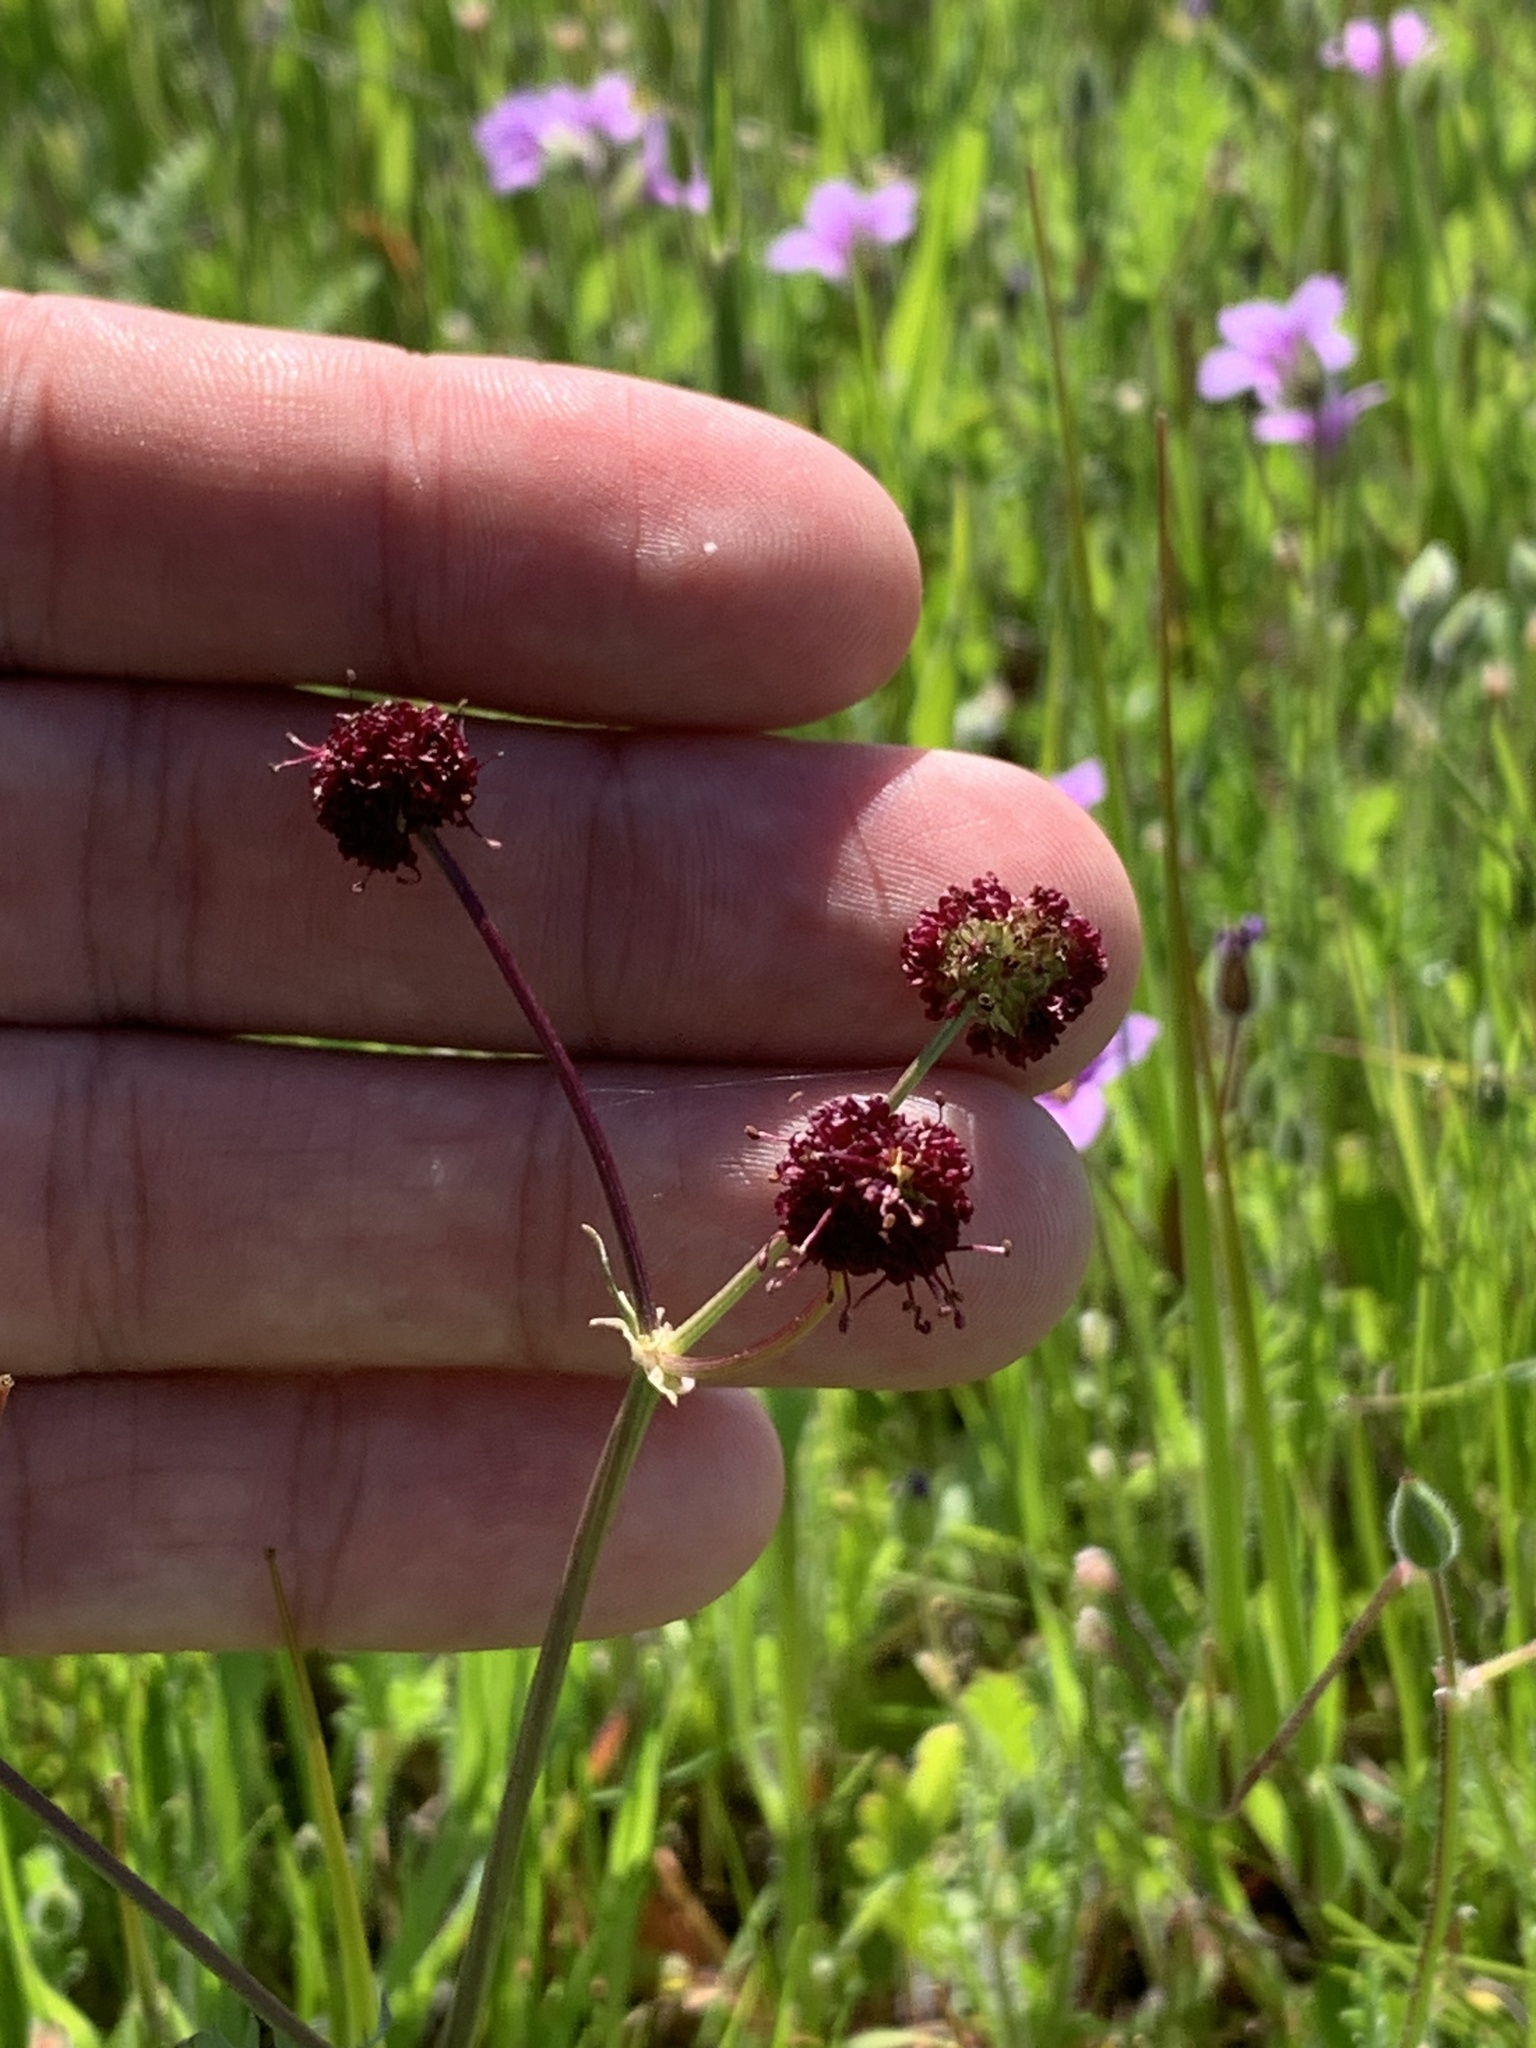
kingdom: Plantae
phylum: Tracheophyta
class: Magnoliopsida
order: Apiales
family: Apiaceae
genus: Sanicula
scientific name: Sanicula bipinnatifida
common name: Shoe-buttons
